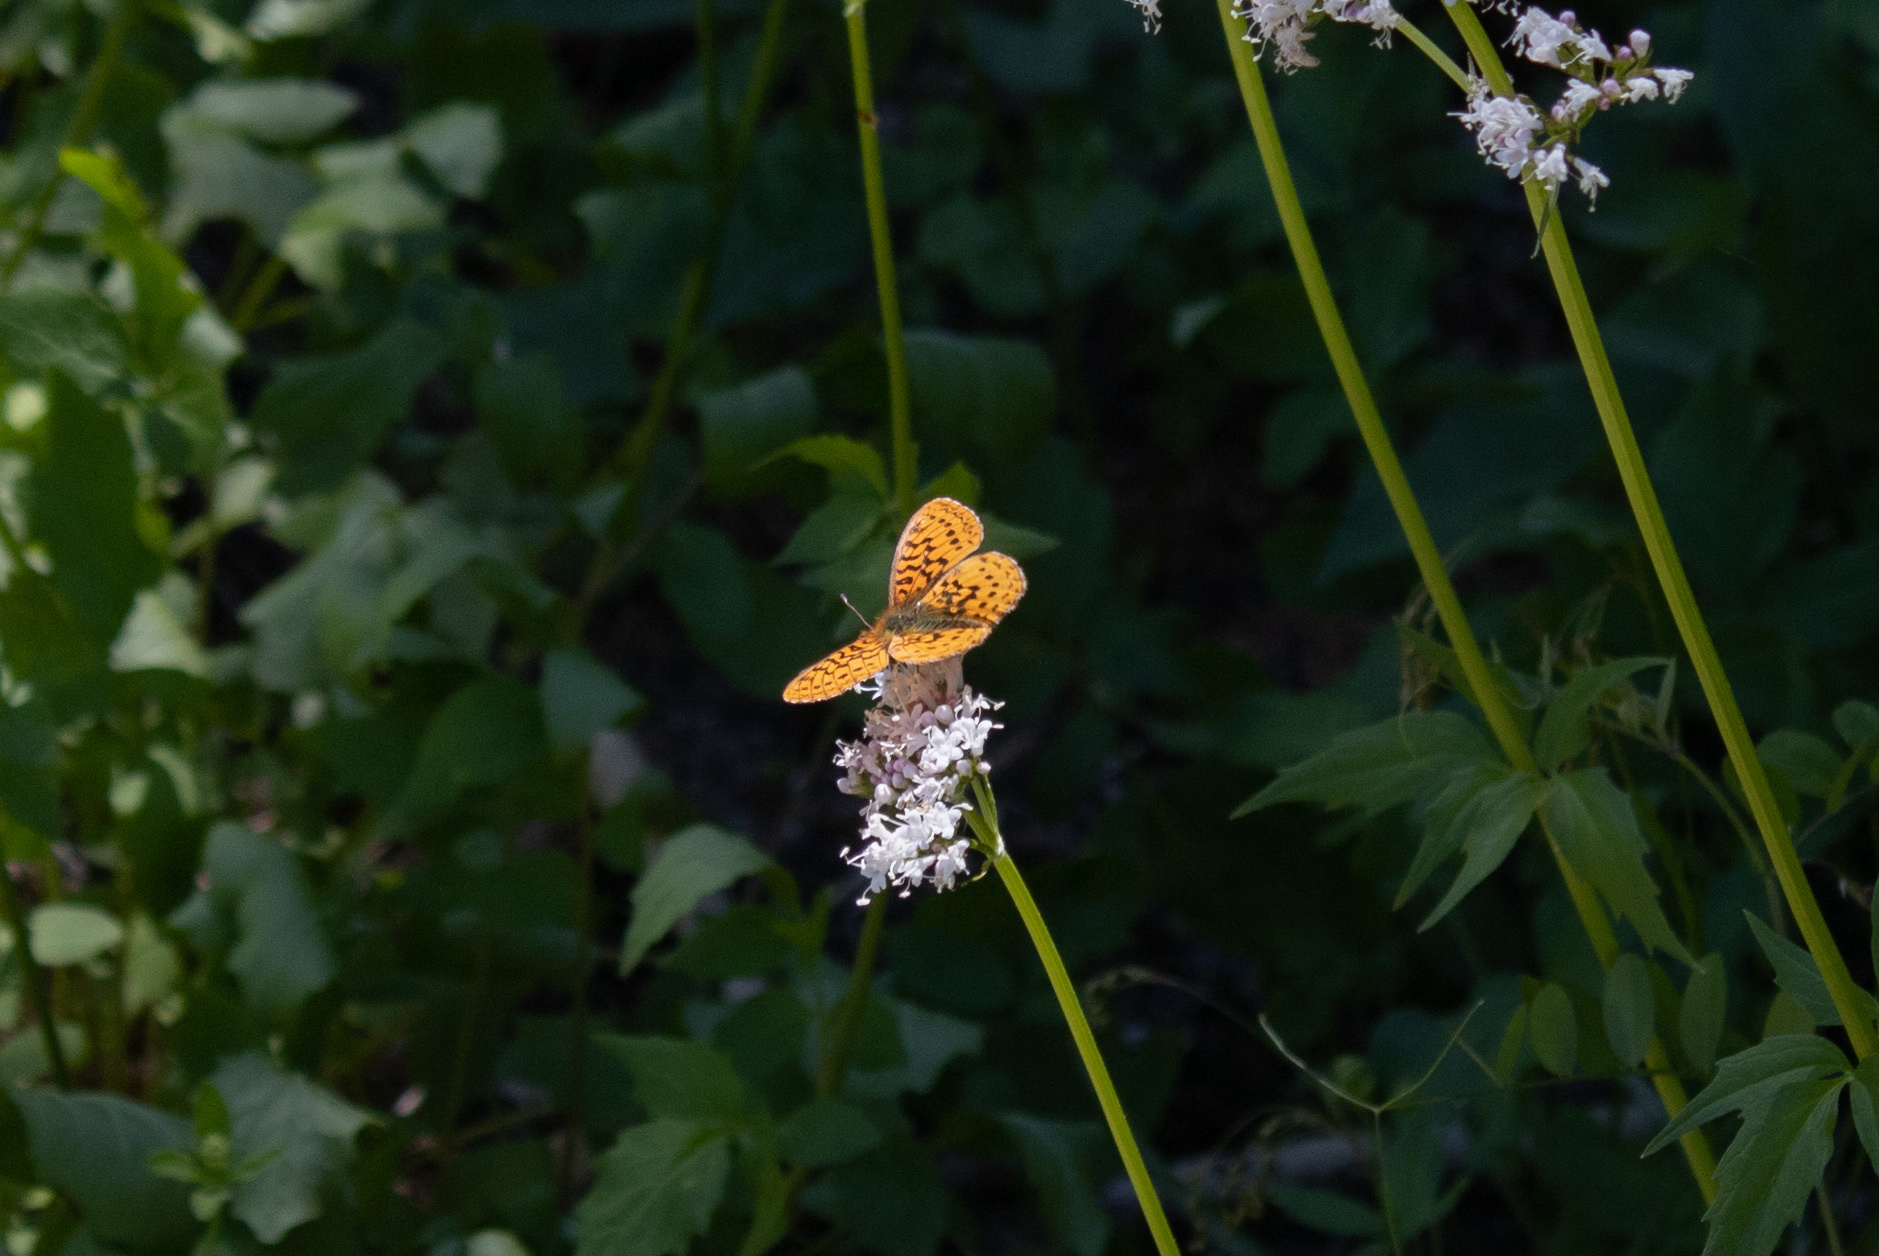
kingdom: Animalia
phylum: Arthropoda
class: Insecta
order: Lepidoptera
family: Nymphalidae
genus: Boloria
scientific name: Boloria epithore
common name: Pacific fritillary
